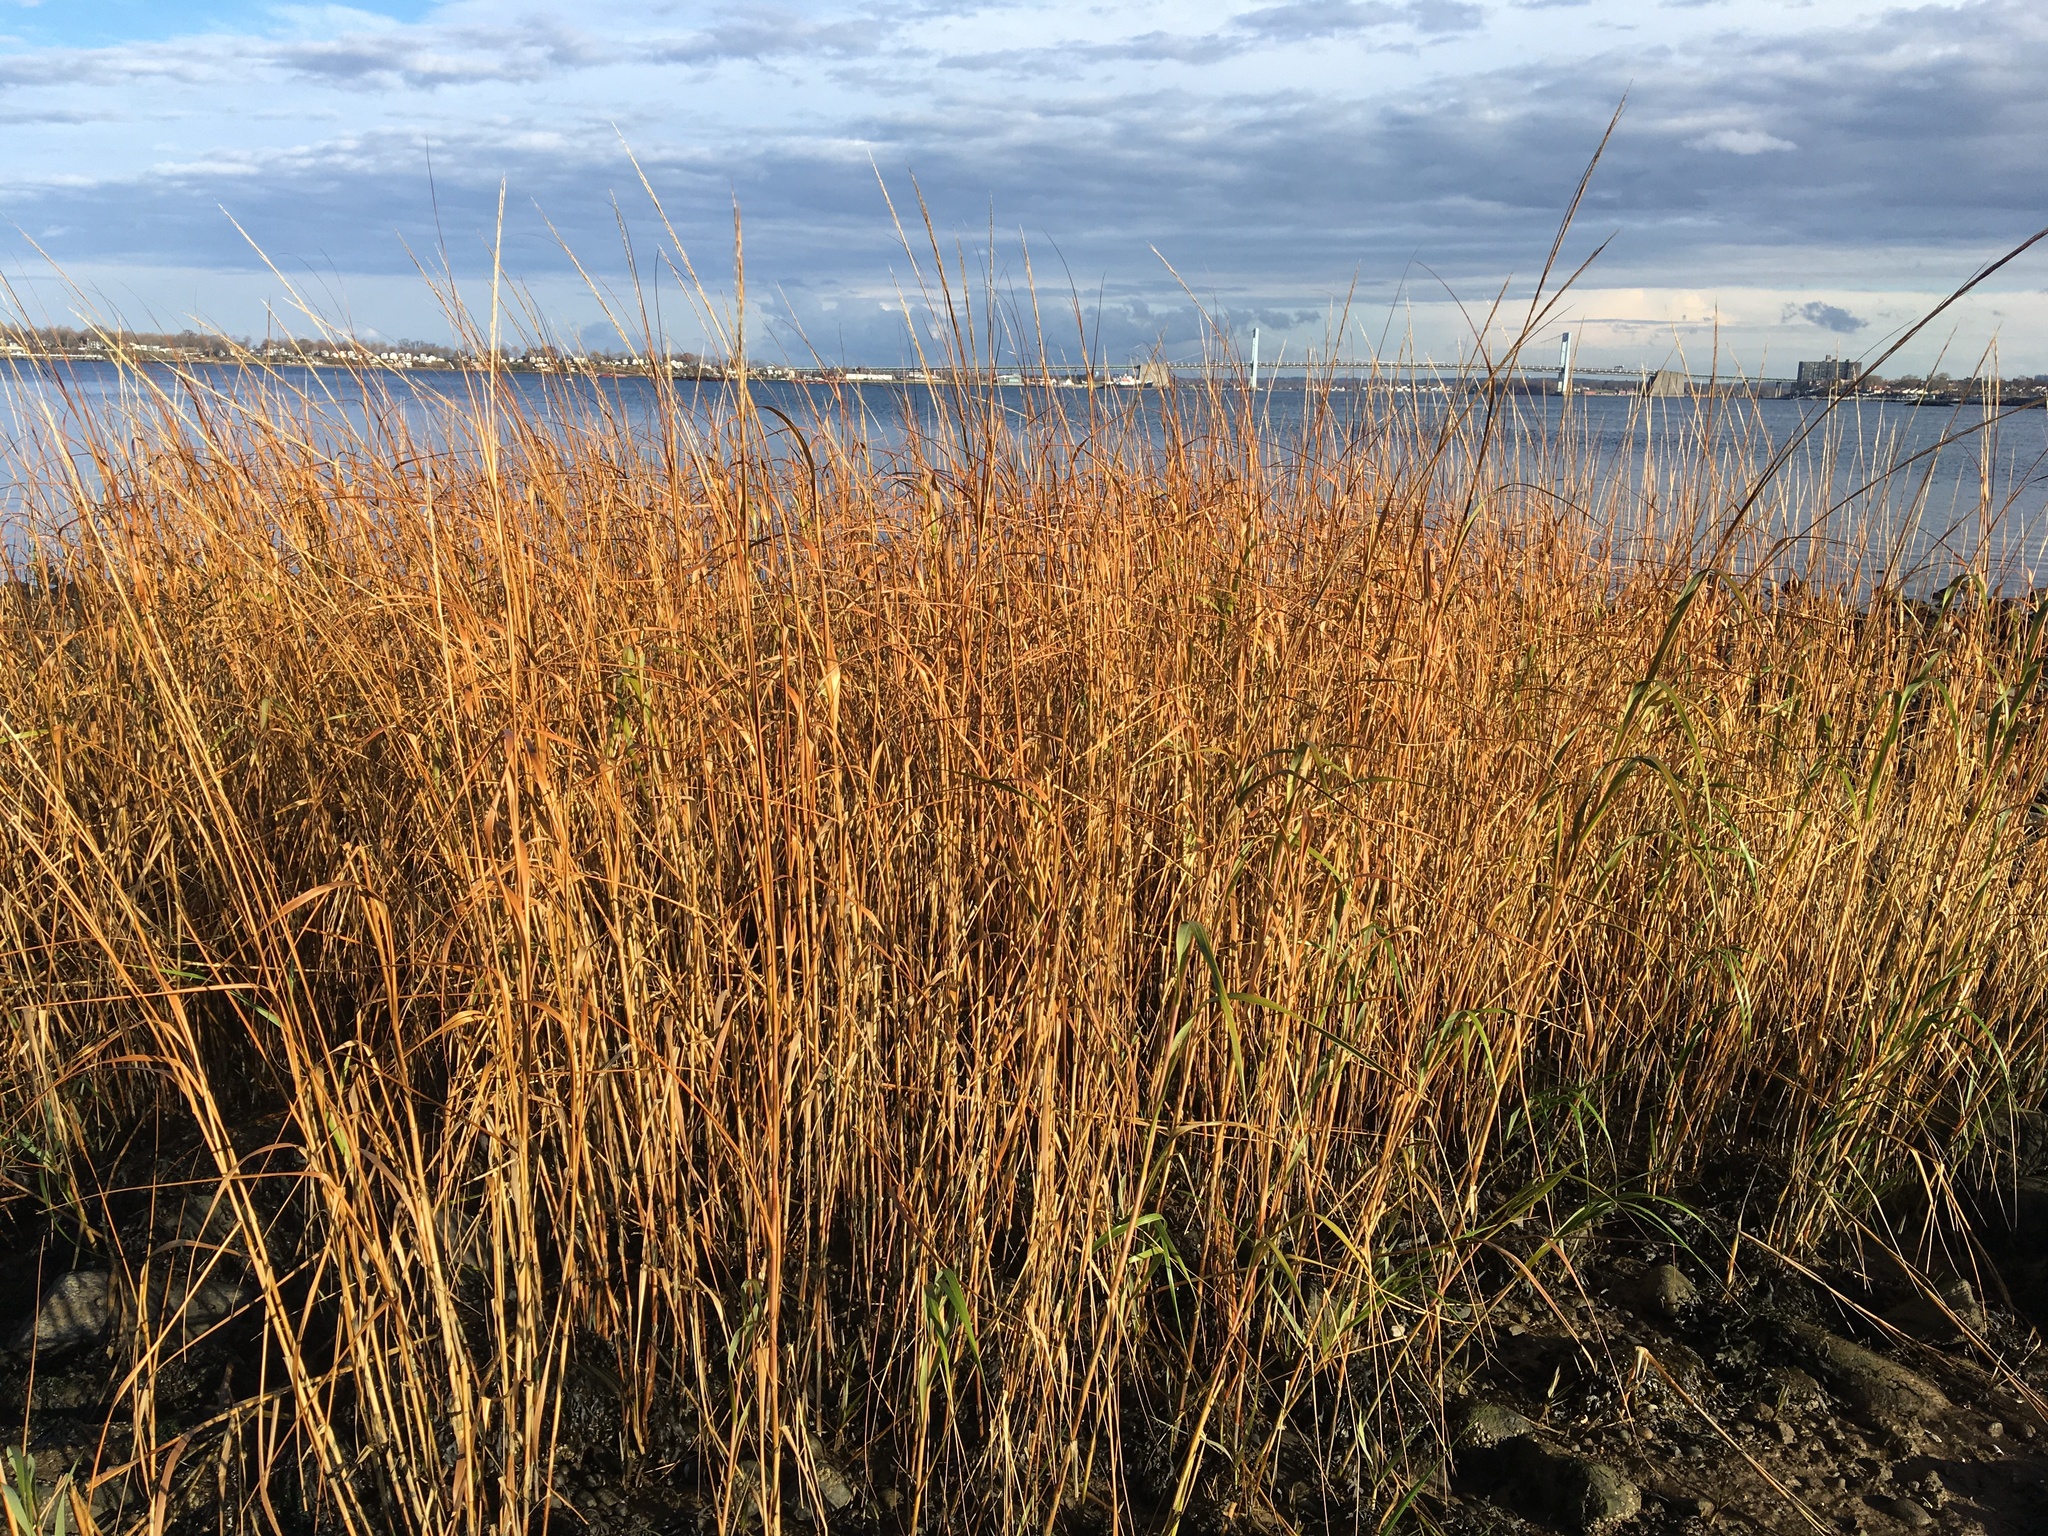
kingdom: Plantae
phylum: Tracheophyta
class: Liliopsida
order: Poales
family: Poaceae
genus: Sporobolus
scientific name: Sporobolus alterniflorus
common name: Atlantic cordgrass
